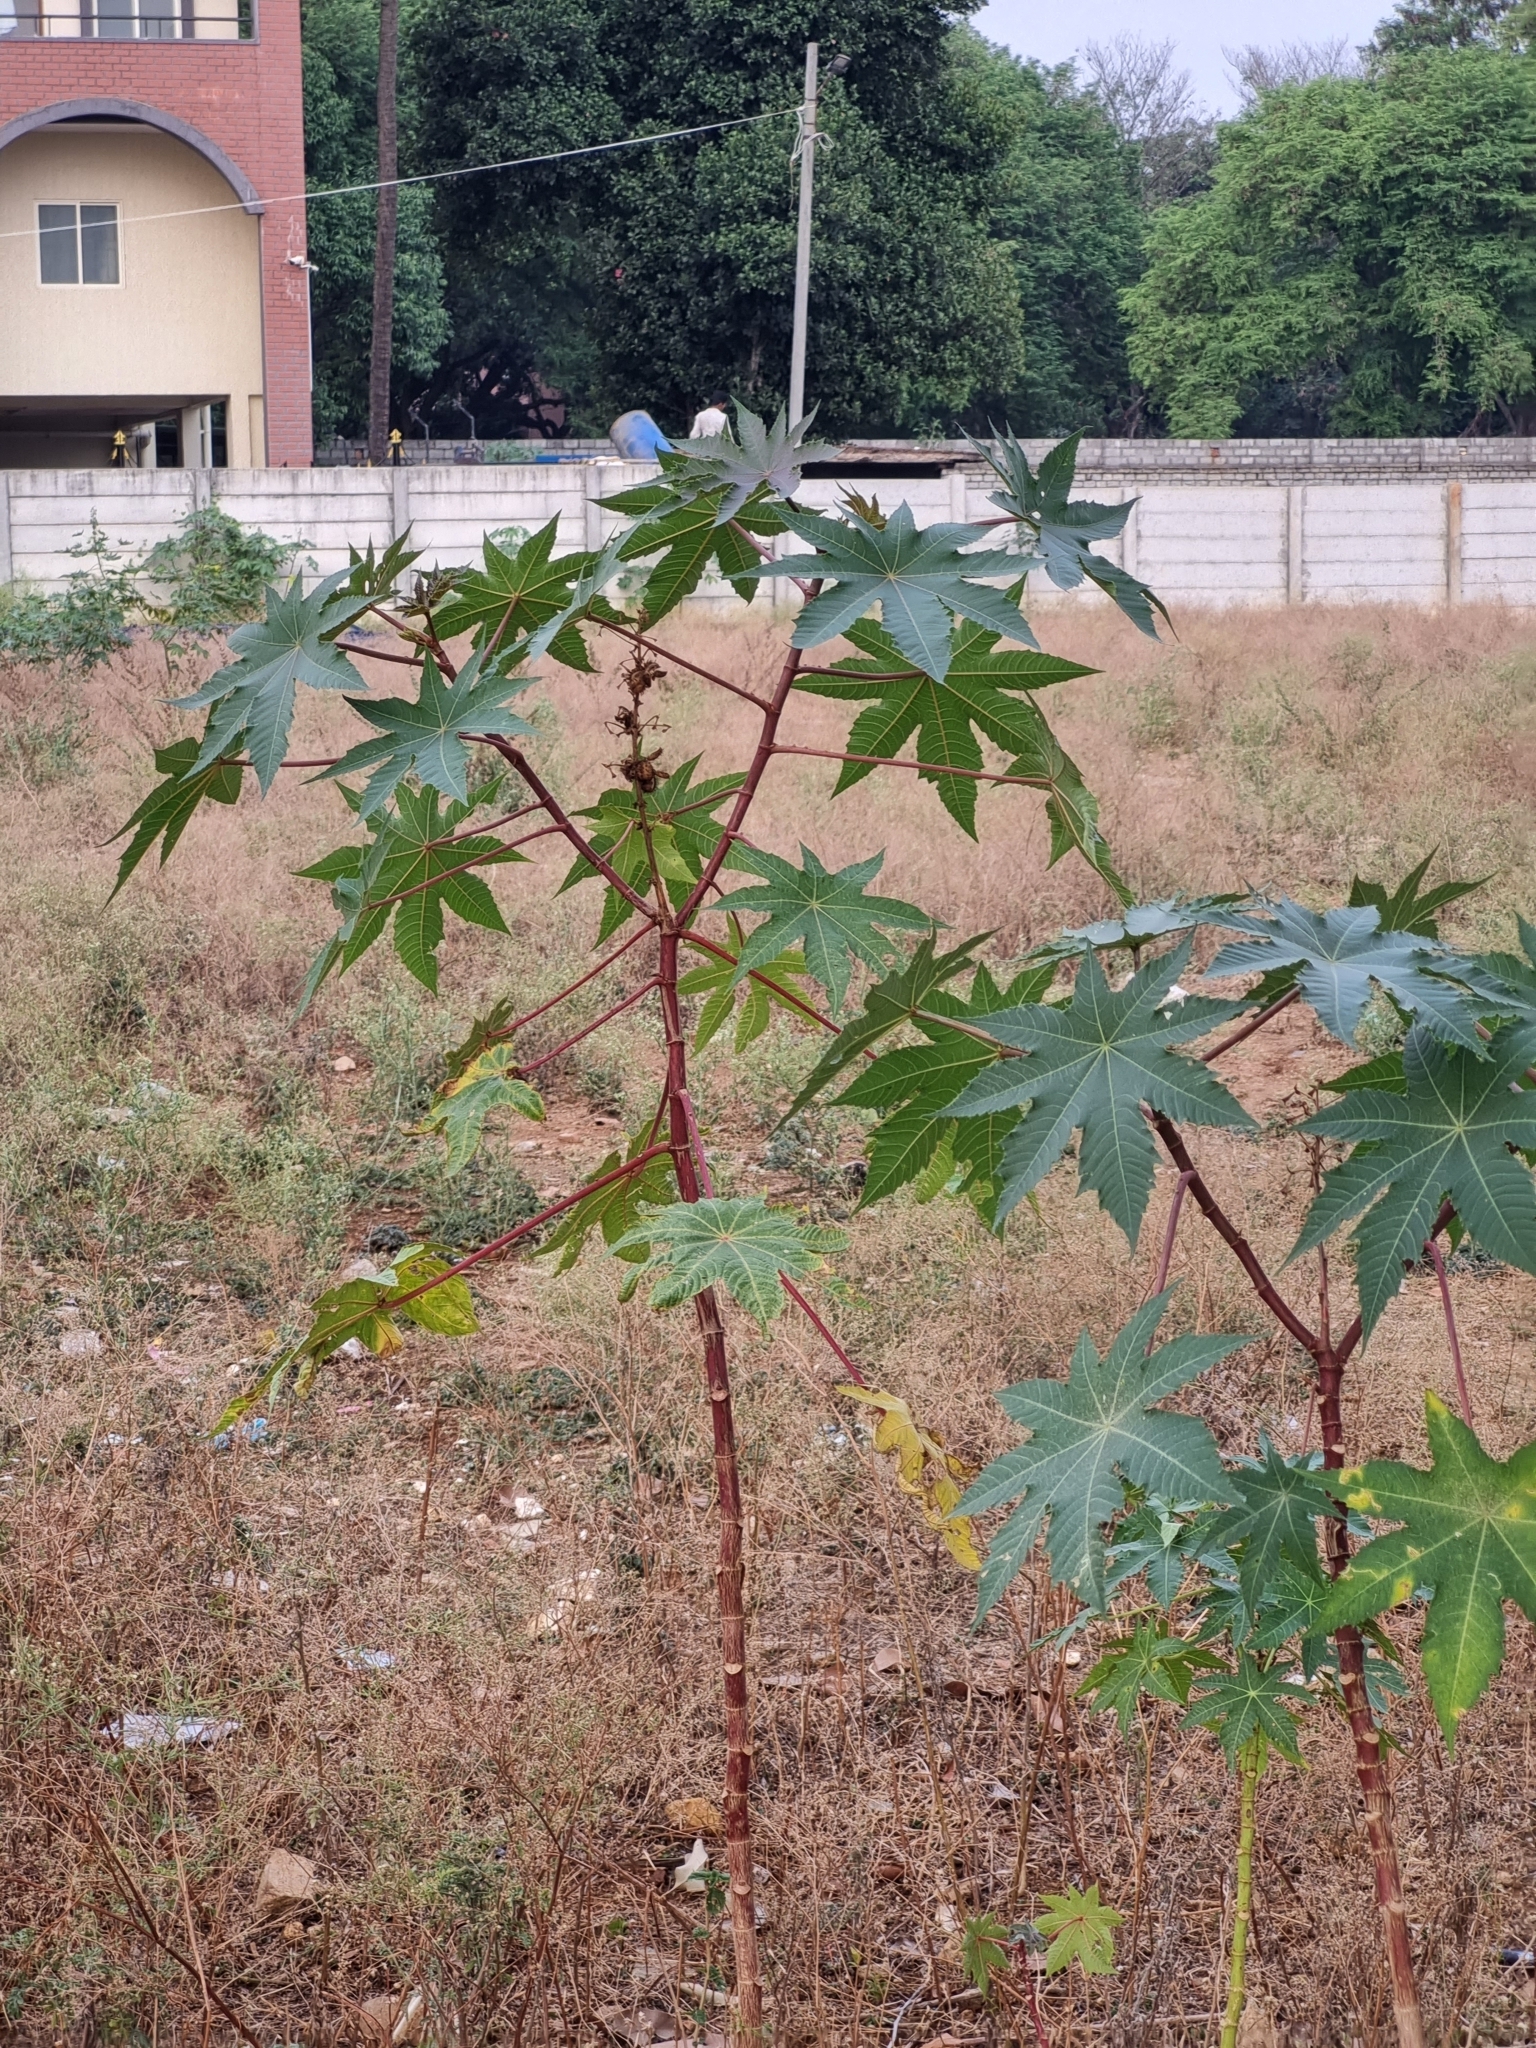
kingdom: Plantae
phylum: Tracheophyta
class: Magnoliopsida
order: Malpighiales
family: Euphorbiaceae
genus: Ricinus
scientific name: Ricinus communis
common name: Castor-oil-plant
